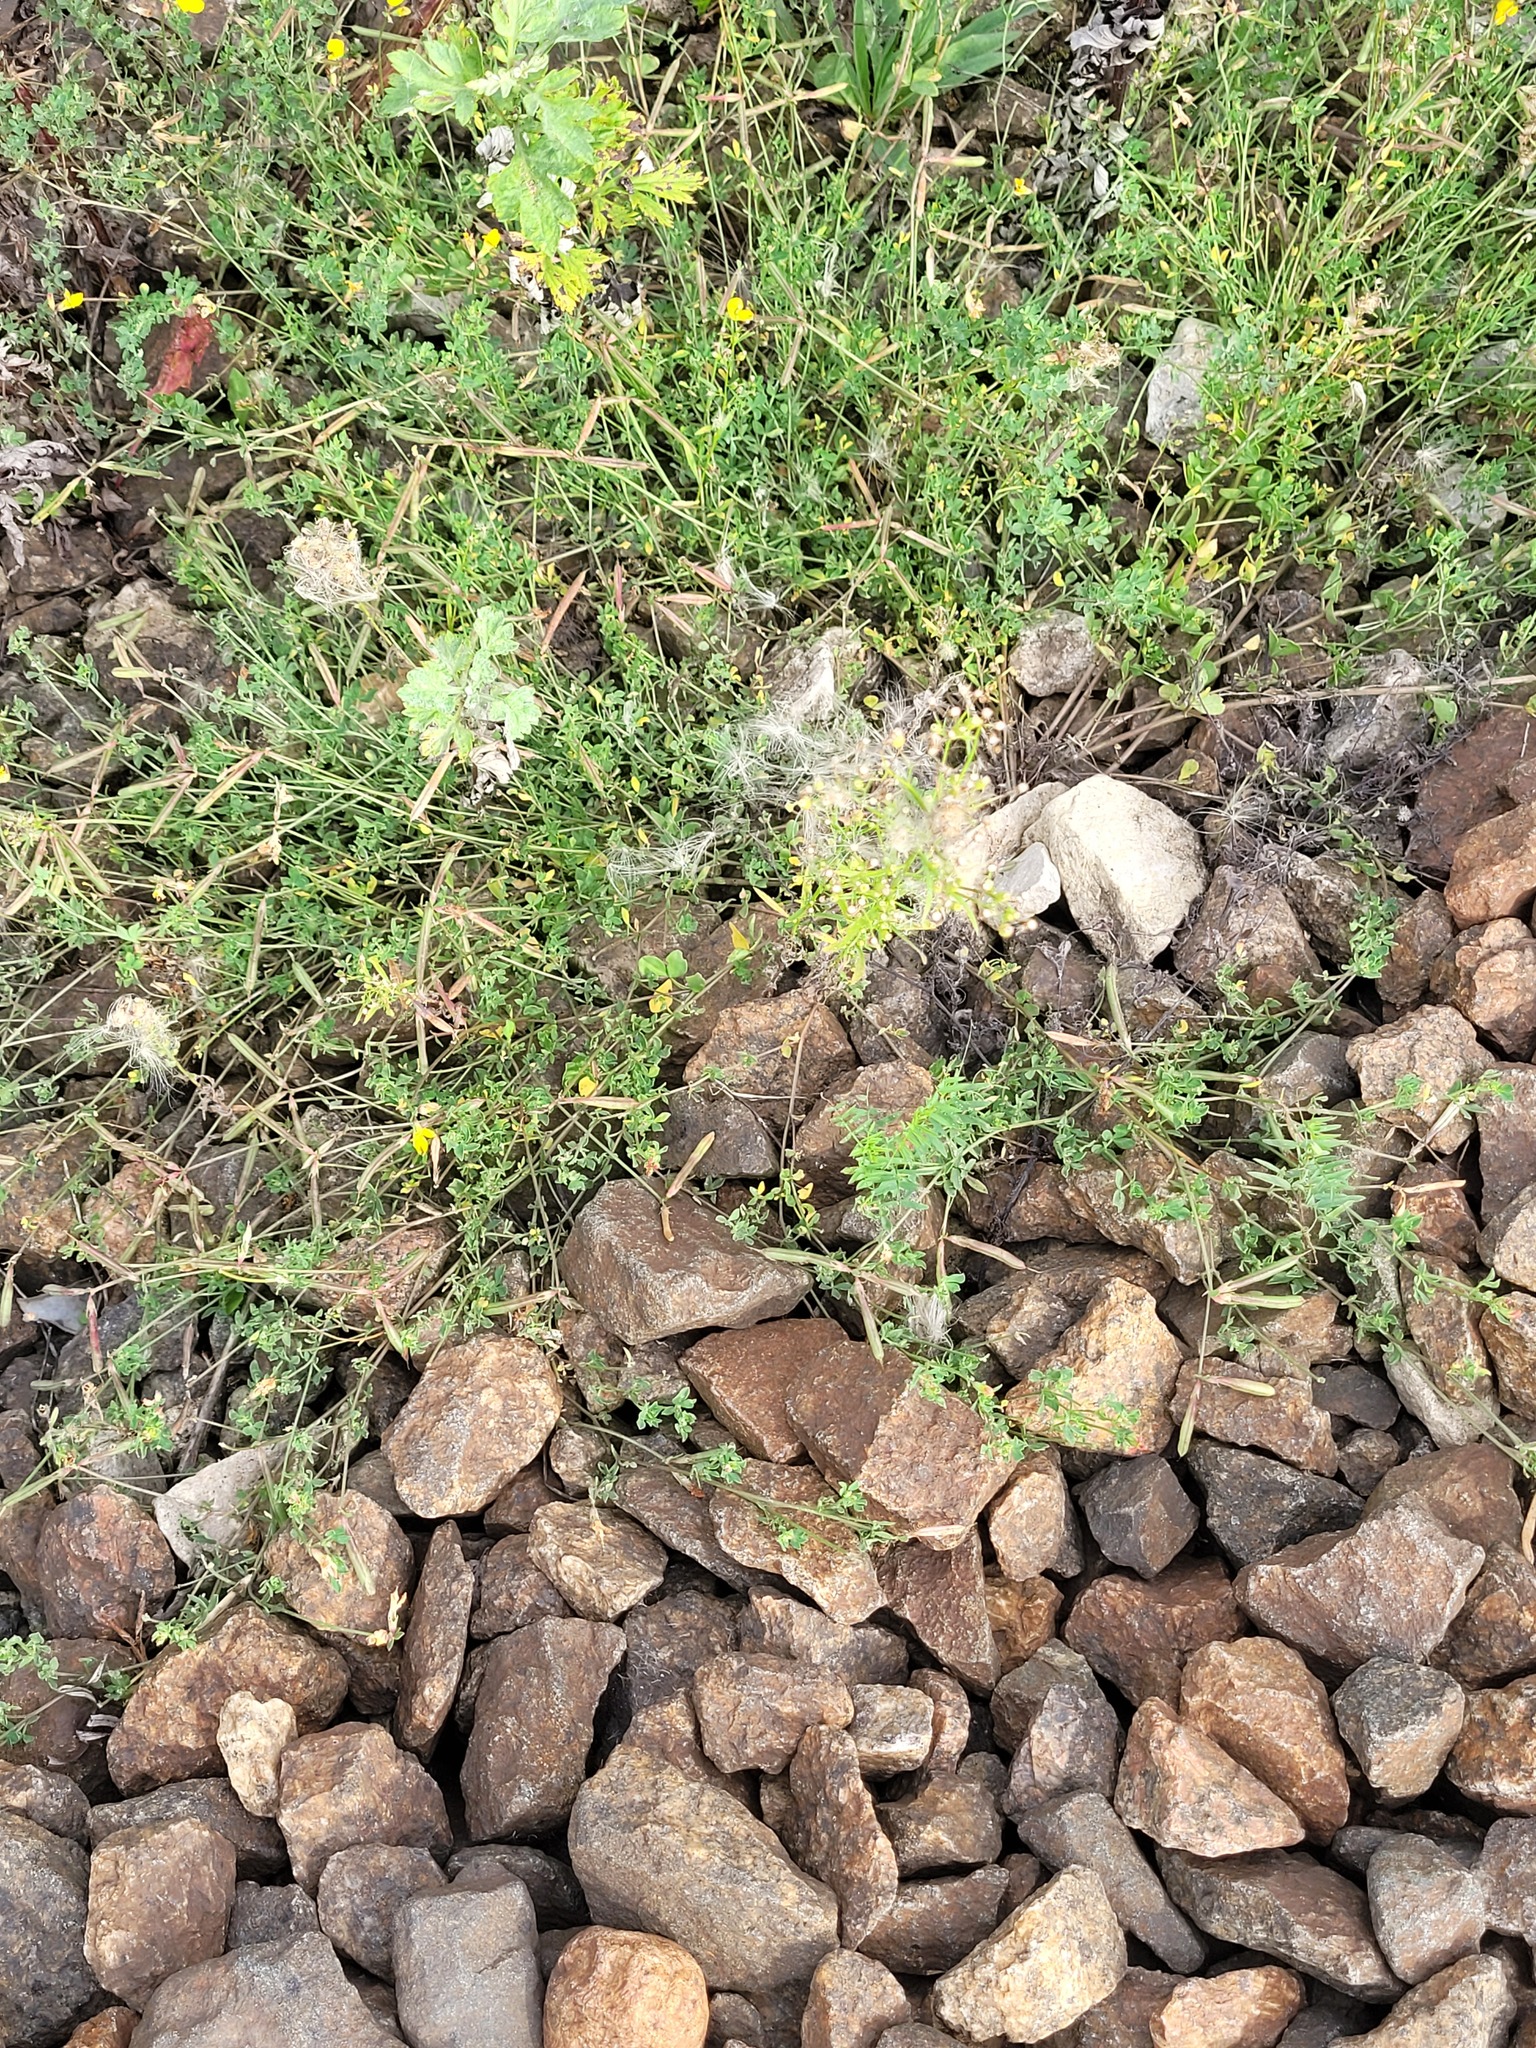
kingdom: Plantae
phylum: Tracheophyta
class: Magnoliopsida
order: Fabales
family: Fabaceae
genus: Lotus
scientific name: Lotus corniculatus
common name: Common bird's-foot-trefoil
